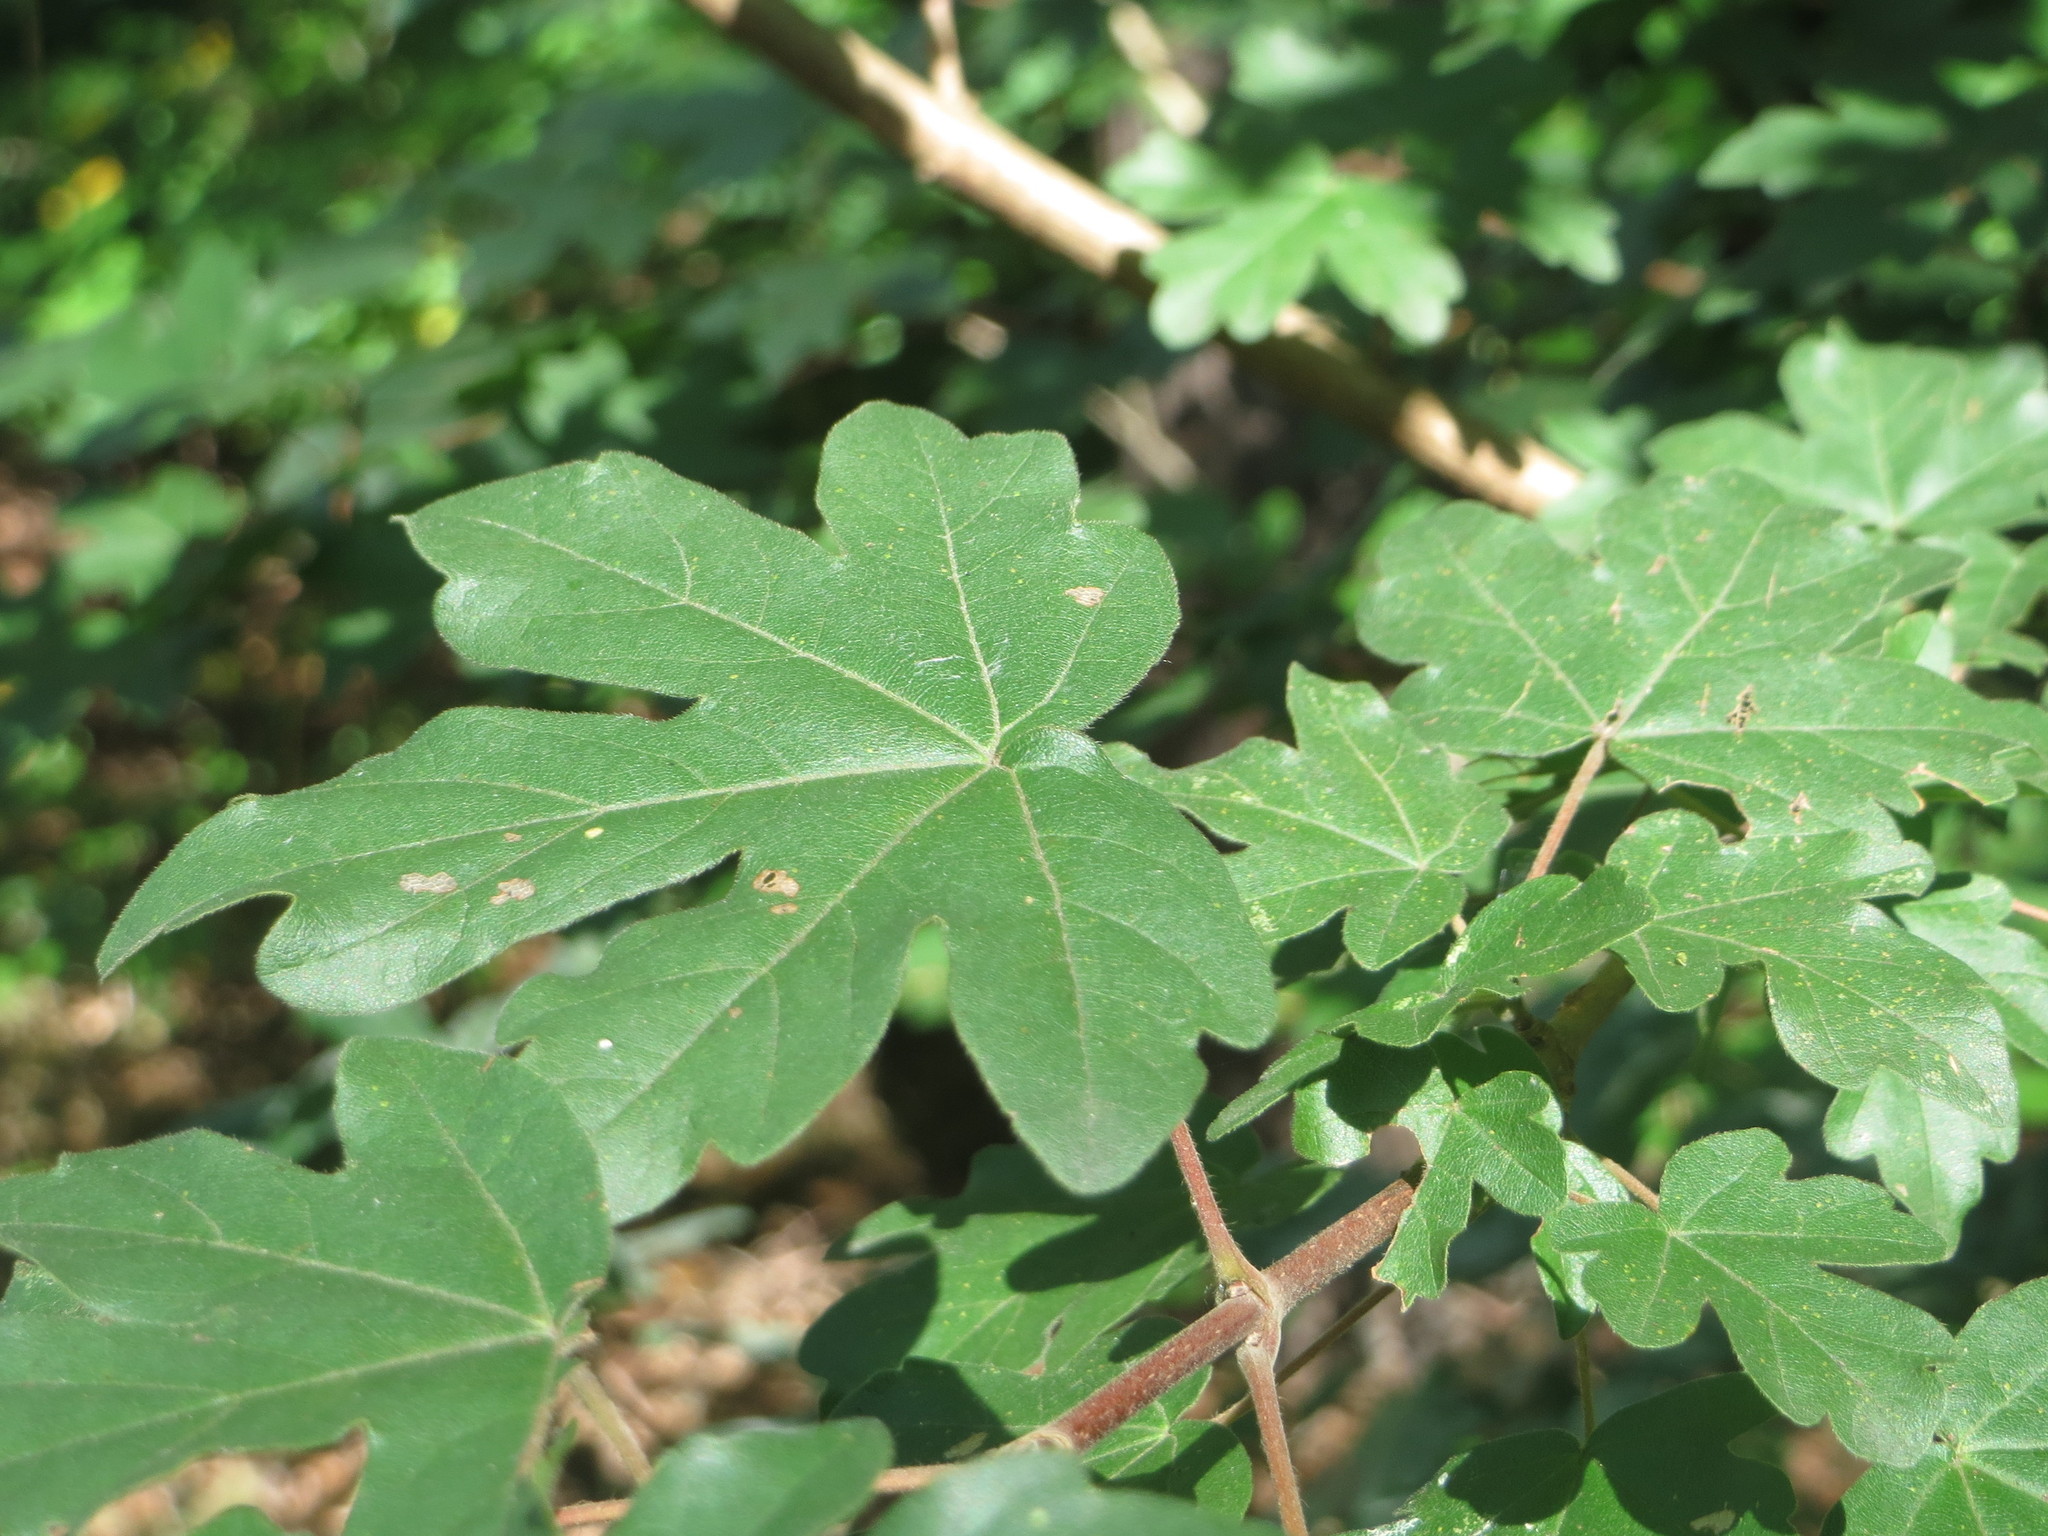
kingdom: Plantae
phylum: Tracheophyta
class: Magnoliopsida
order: Sapindales
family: Sapindaceae
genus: Acer
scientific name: Acer campestre
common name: Field maple
